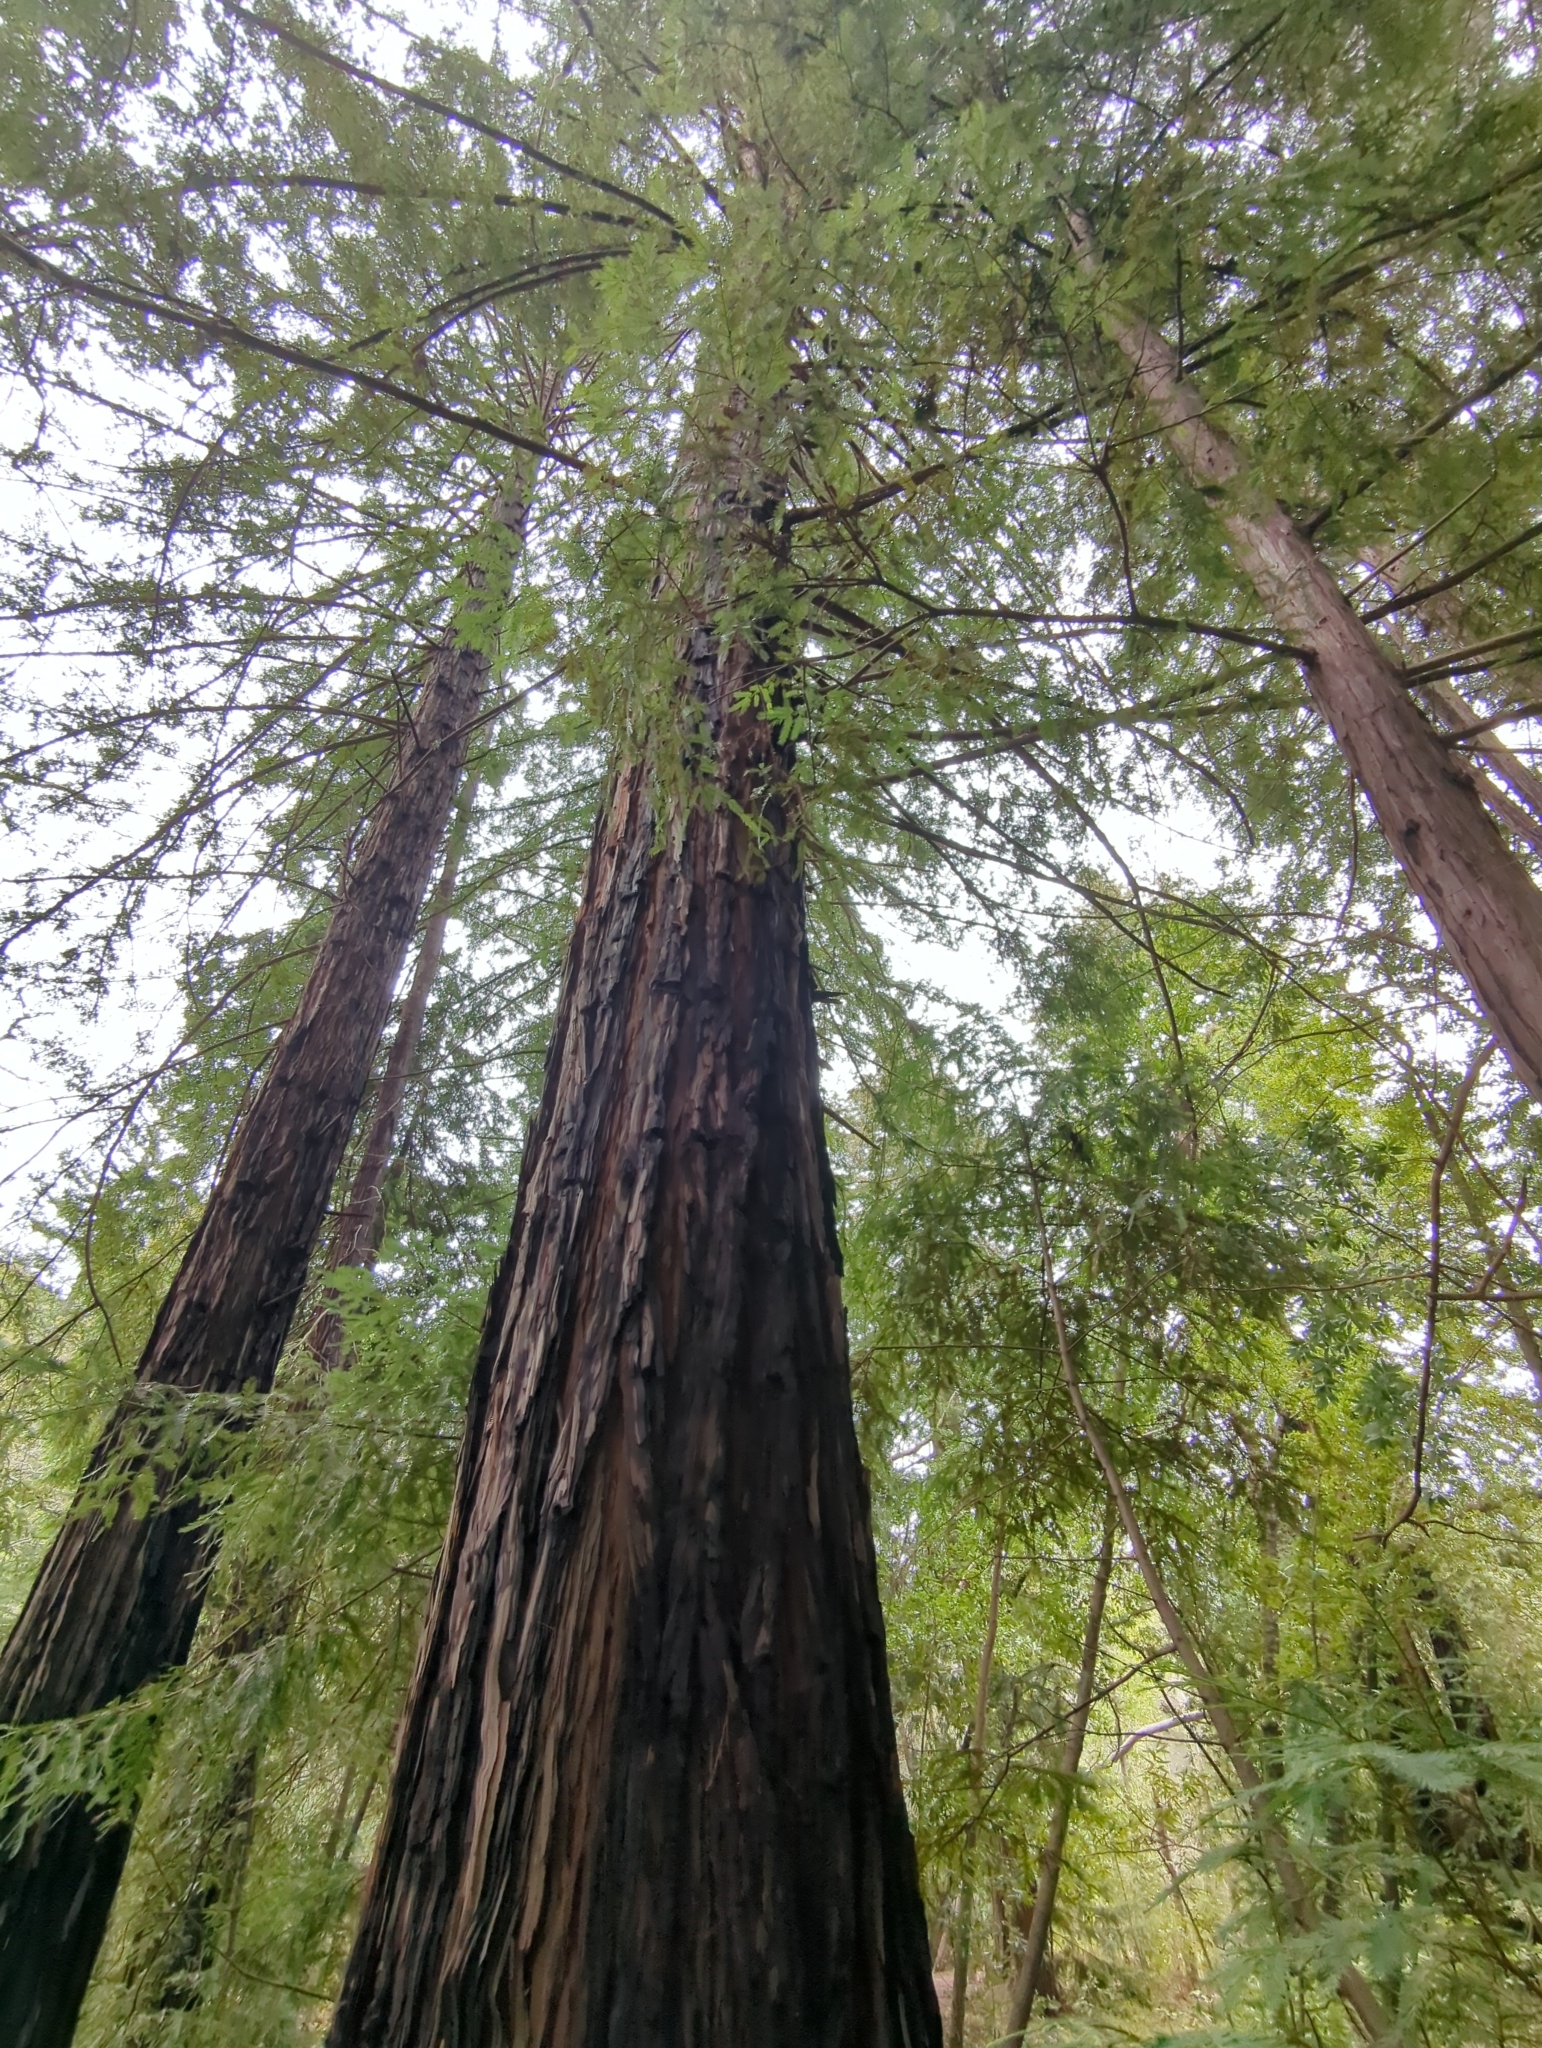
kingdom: Plantae
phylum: Tracheophyta
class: Pinopsida
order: Pinales
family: Cupressaceae
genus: Sequoia
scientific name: Sequoia sempervirens
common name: Coast redwood
